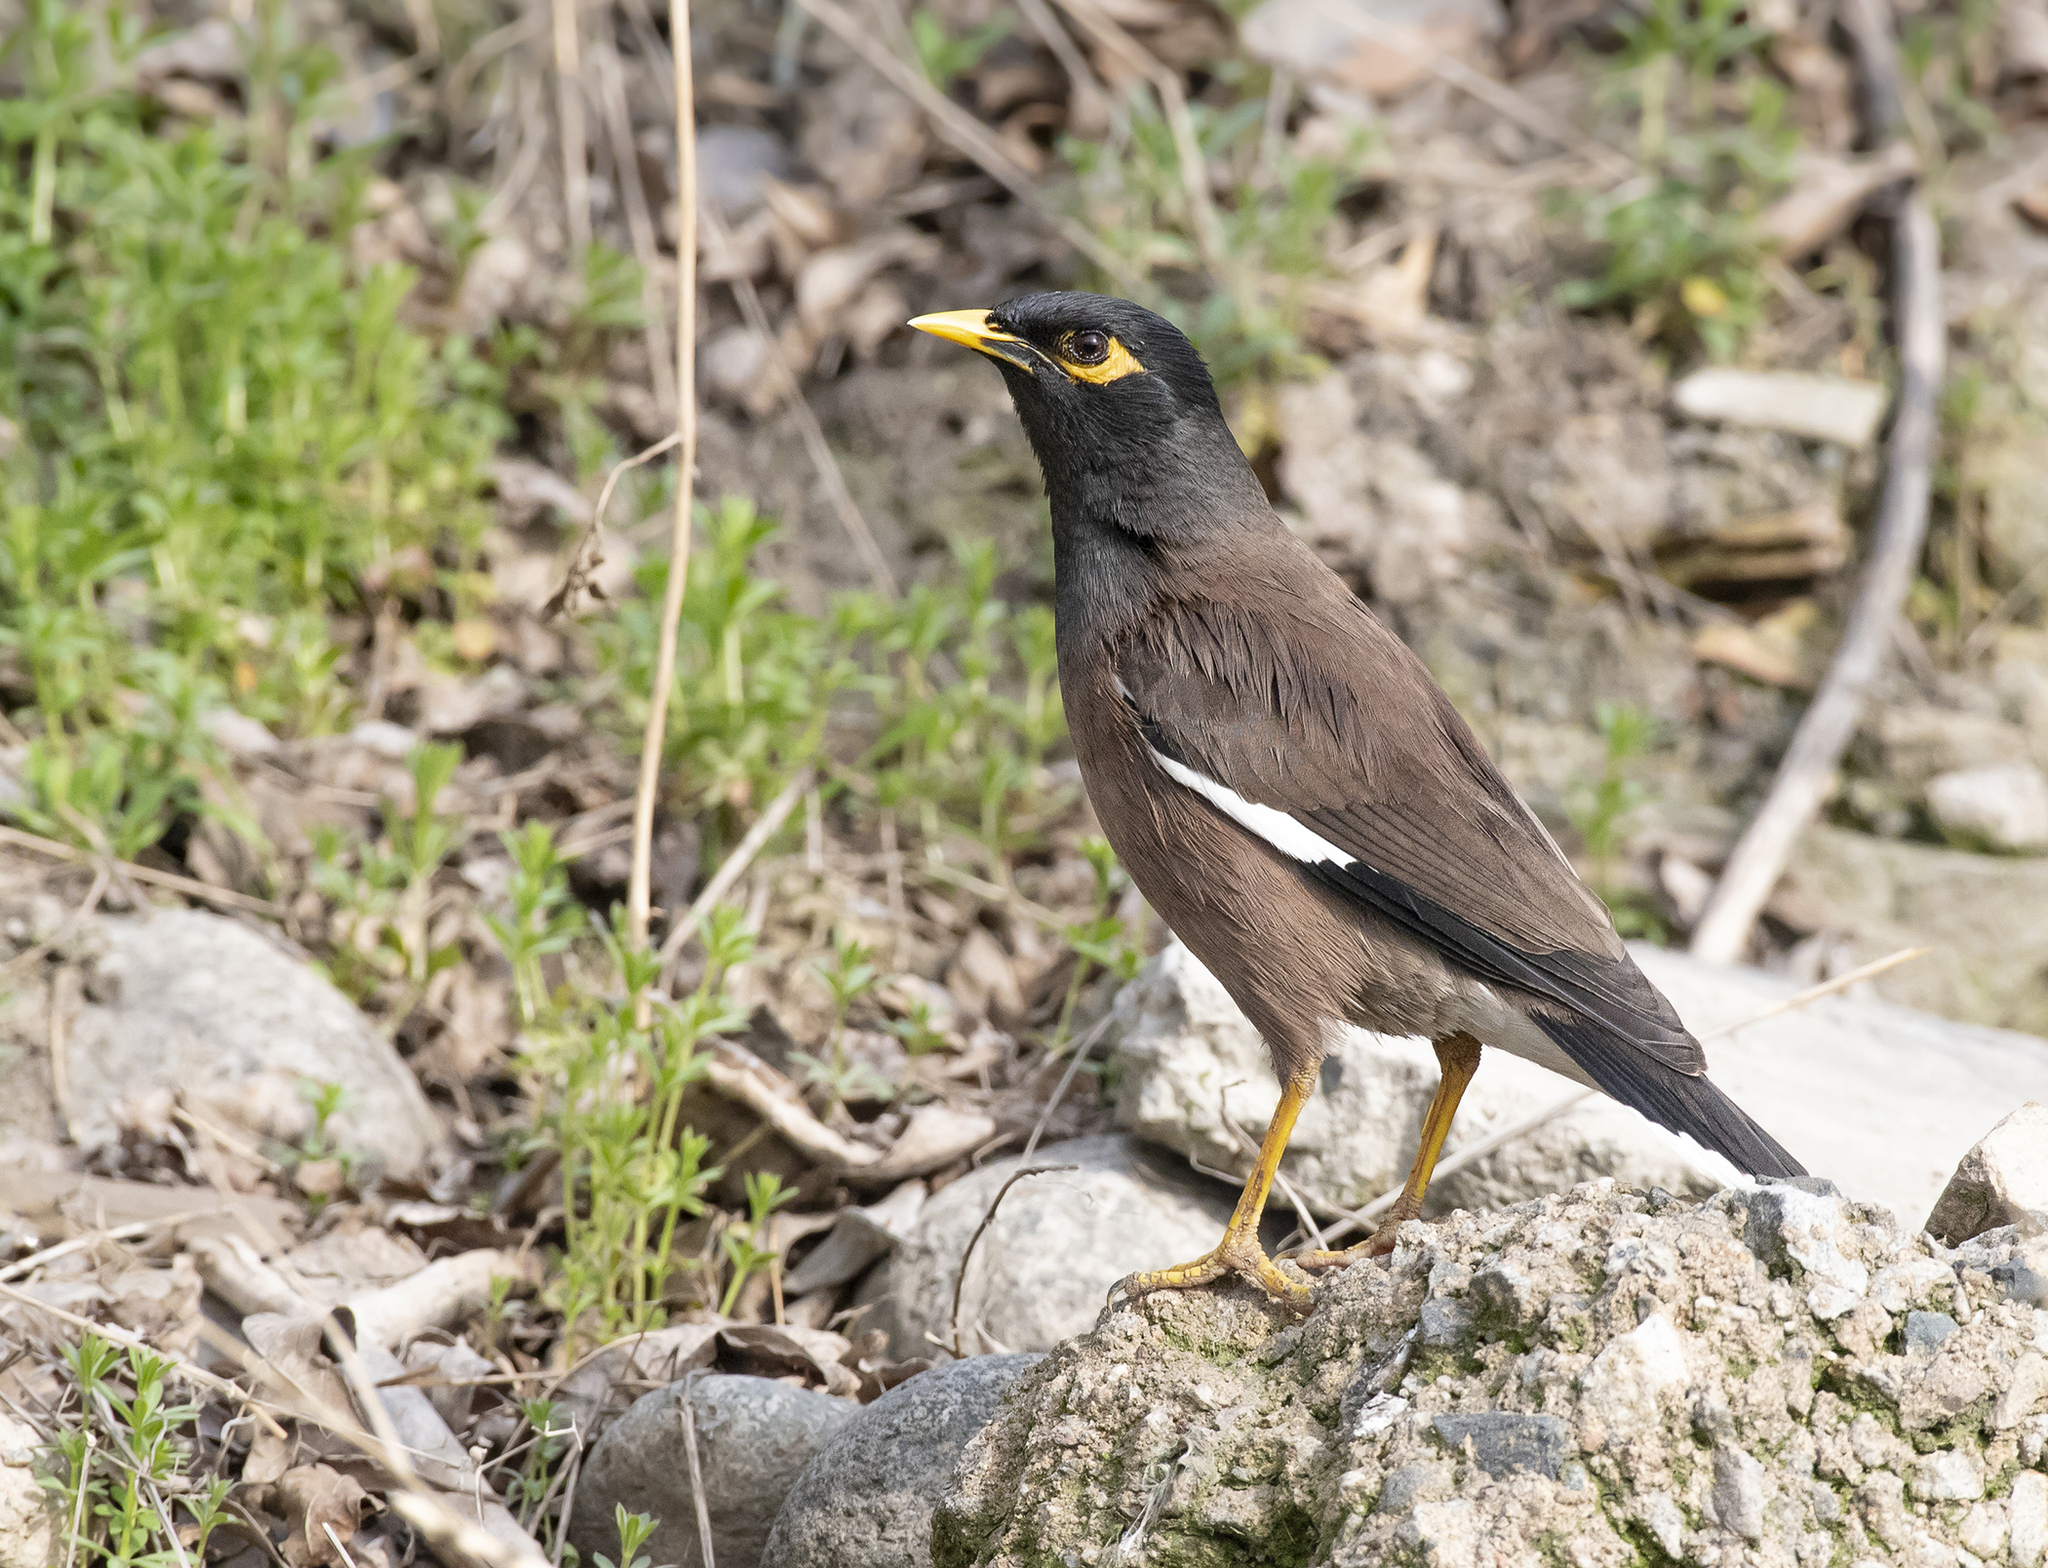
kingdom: Animalia
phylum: Chordata
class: Aves
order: Passeriformes
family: Sturnidae
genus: Acridotheres
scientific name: Acridotheres tristis
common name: Common myna
